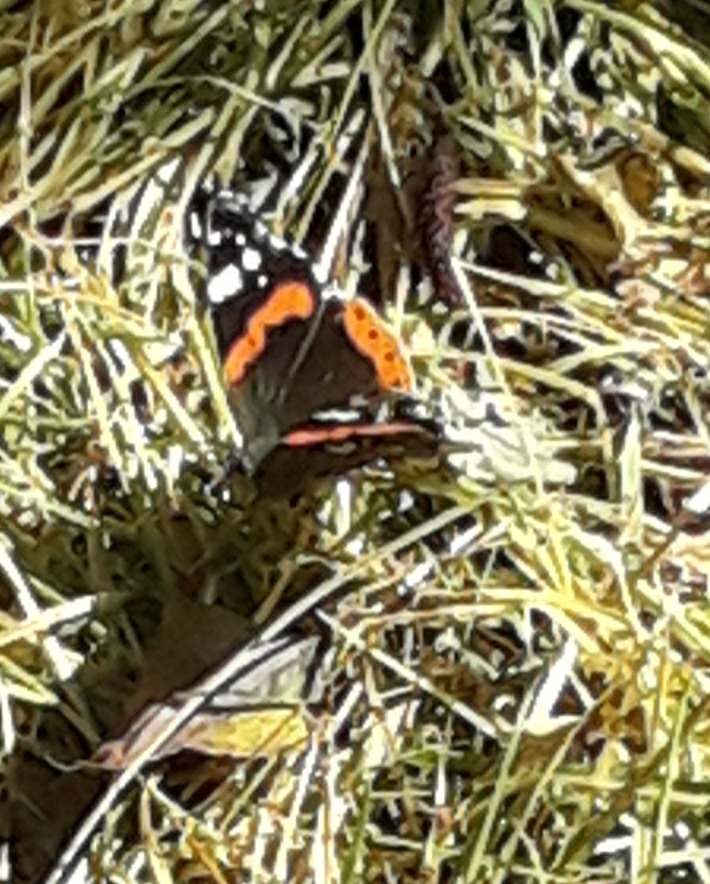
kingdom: Animalia
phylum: Arthropoda
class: Insecta
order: Lepidoptera
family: Nymphalidae
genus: Vanessa
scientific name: Vanessa atalanta
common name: Red admiral
